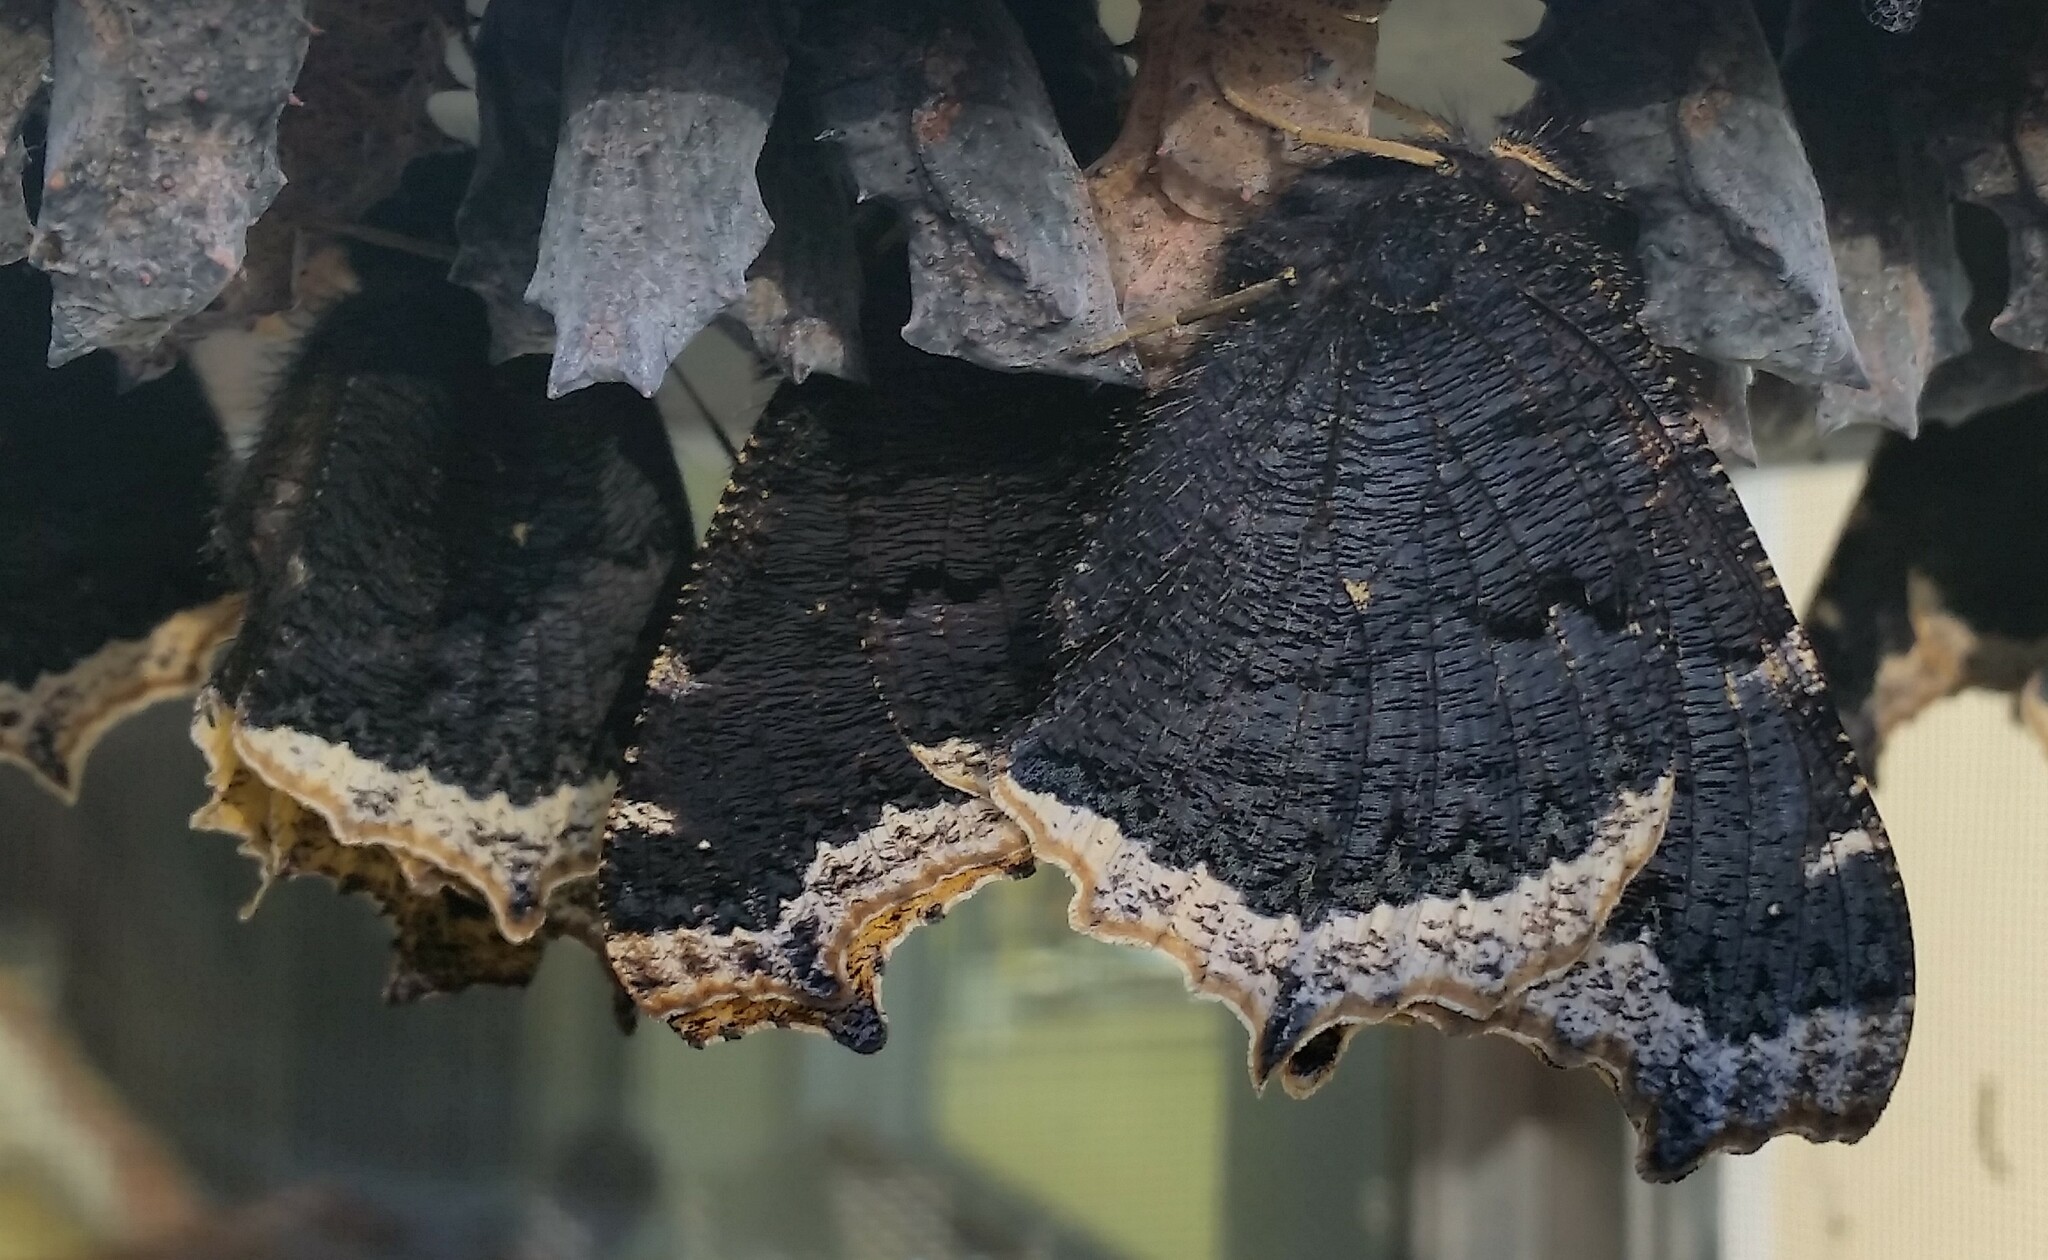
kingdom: Animalia
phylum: Arthropoda
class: Insecta
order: Lepidoptera
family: Nymphalidae
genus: Nymphalis
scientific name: Nymphalis antiopa
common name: Camberwell beauty
